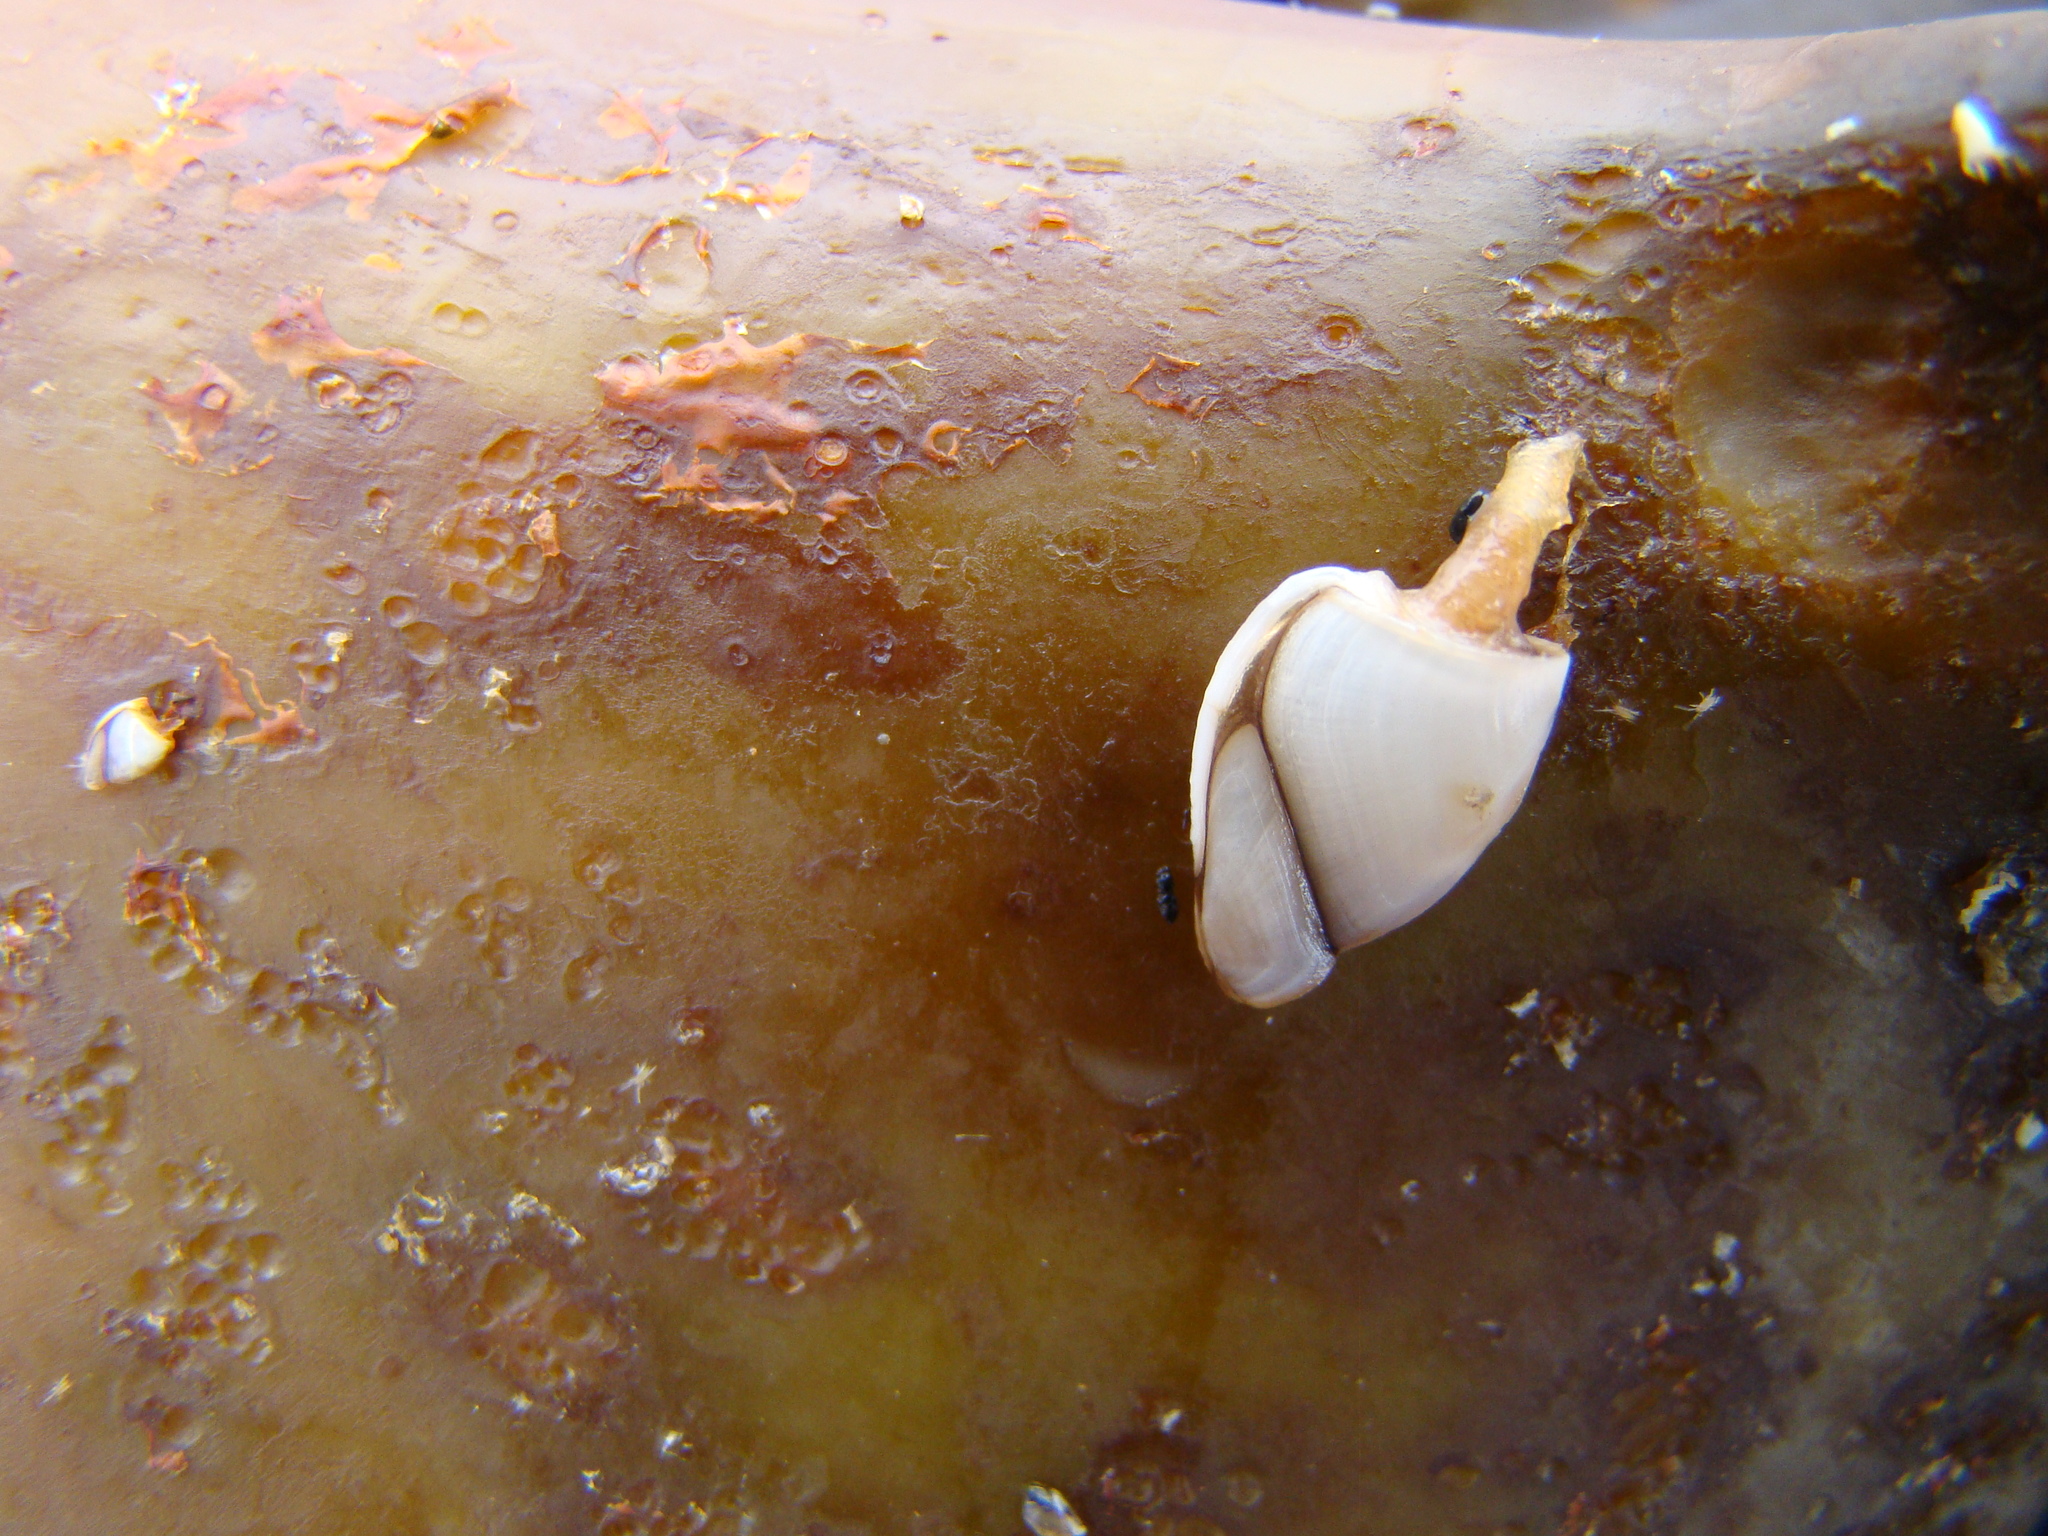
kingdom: Animalia
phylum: Arthropoda
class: Maxillopoda
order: Pedunculata
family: Lepadidae
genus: Lepas
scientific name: Lepas australis
